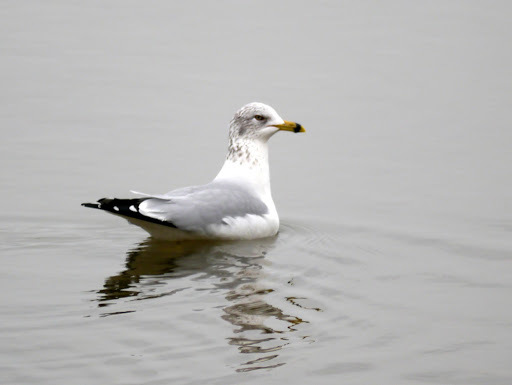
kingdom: Animalia
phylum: Chordata
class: Aves
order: Charadriiformes
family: Laridae
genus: Larus
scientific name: Larus delawarensis
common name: Ring-billed gull
